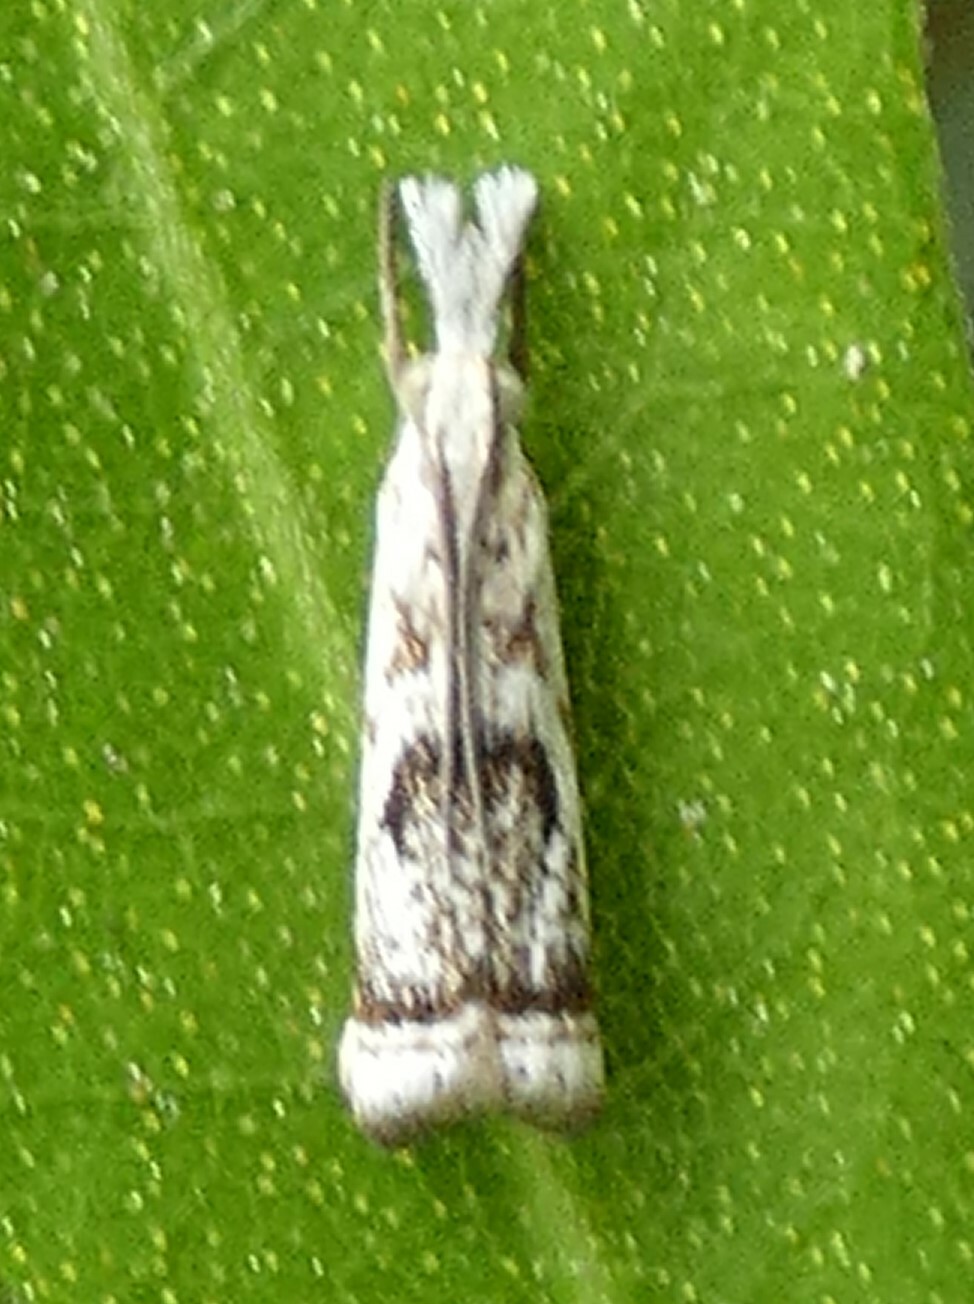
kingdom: Animalia
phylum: Arthropoda
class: Insecta
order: Lepidoptera
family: Crambidae
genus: Microcrambus
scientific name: Microcrambus elegans
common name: Elegant grass-veneer
